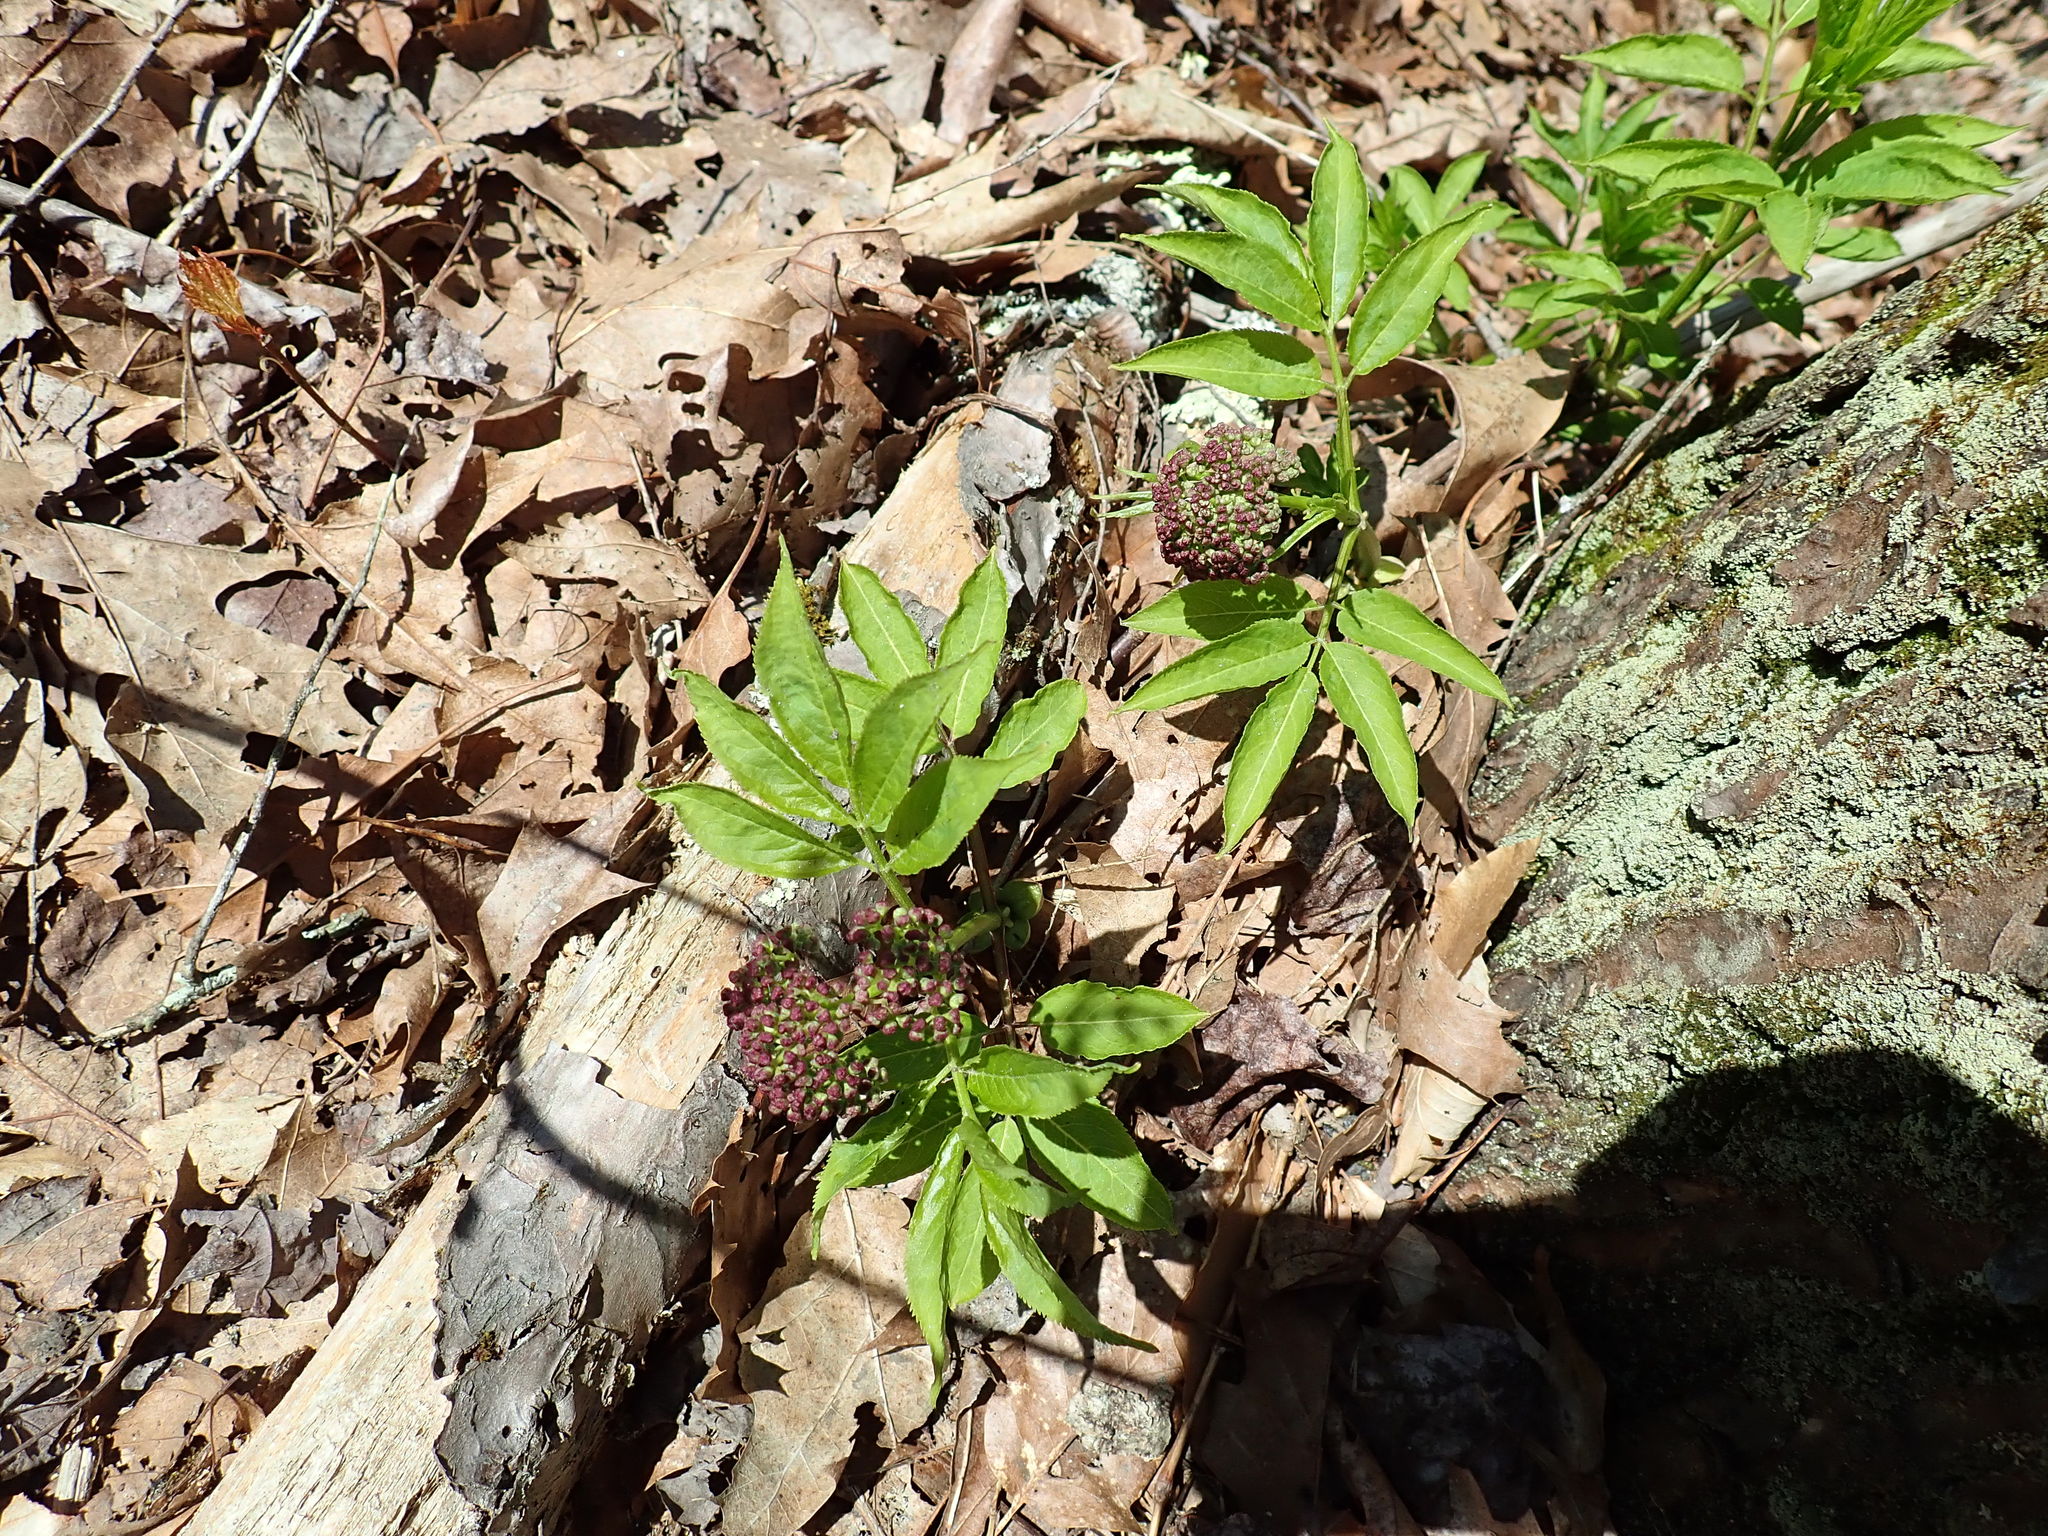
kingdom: Plantae
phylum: Tracheophyta
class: Magnoliopsida
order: Dipsacales
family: Viburnaceae
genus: Sambucus
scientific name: Sambucus racemosa
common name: Red-berried elder
